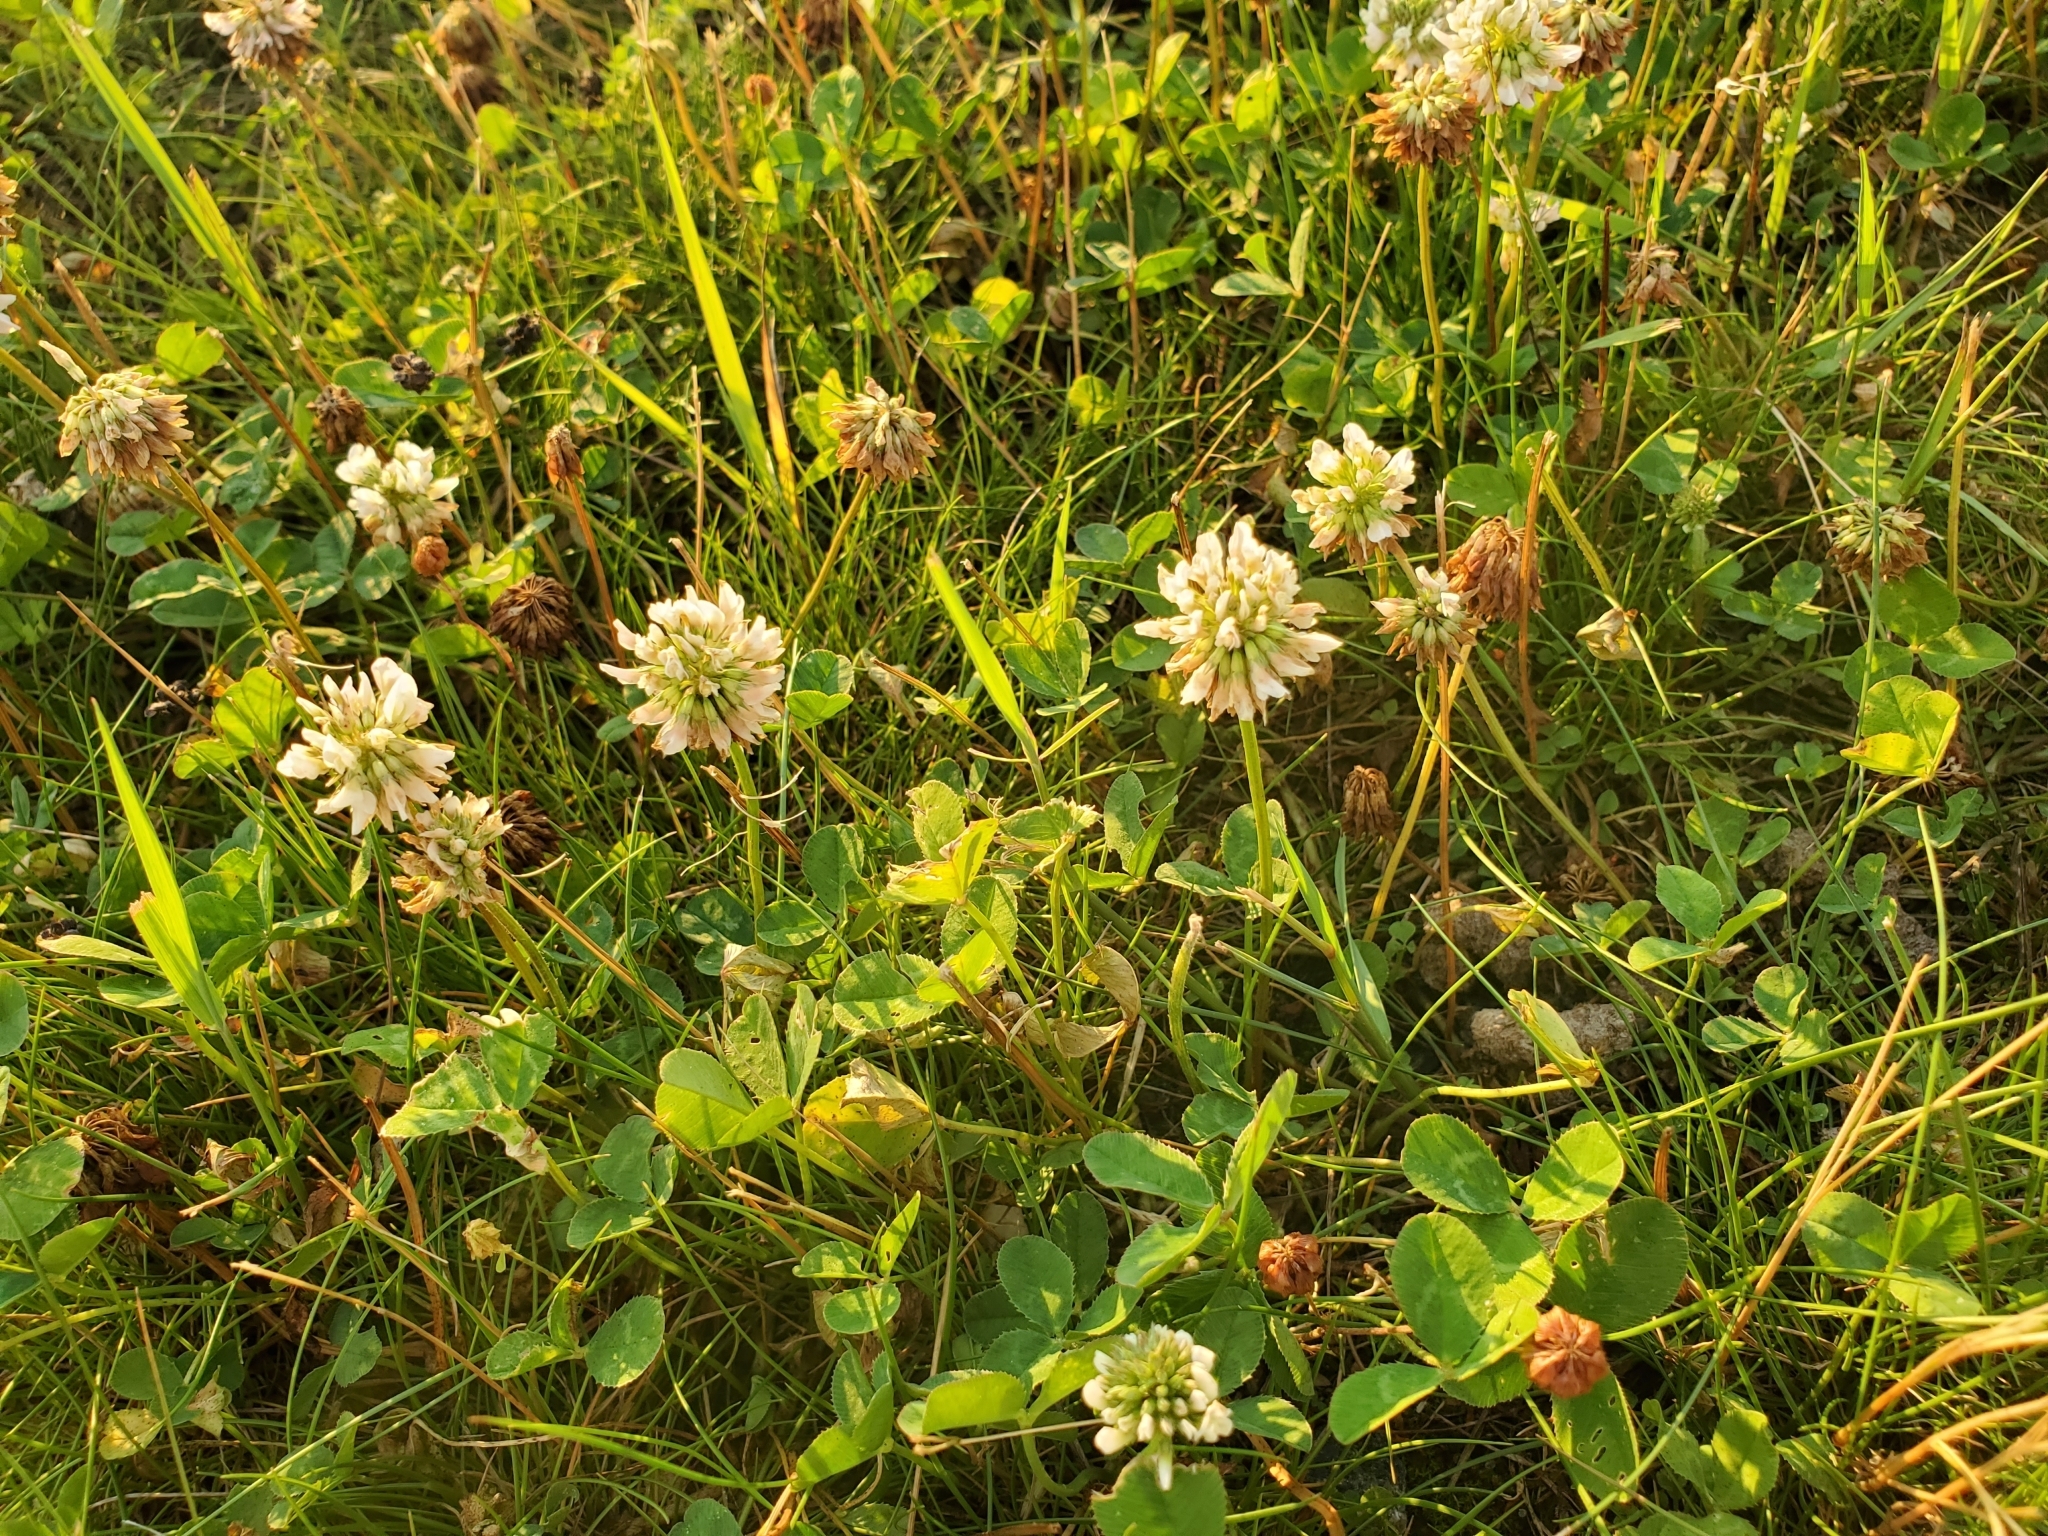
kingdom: Plantae
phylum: Tracheophyta
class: Magnoliopsida
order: Fabales
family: Fabaceae
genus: Trifolium
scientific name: Trifolium repens
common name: White clover
